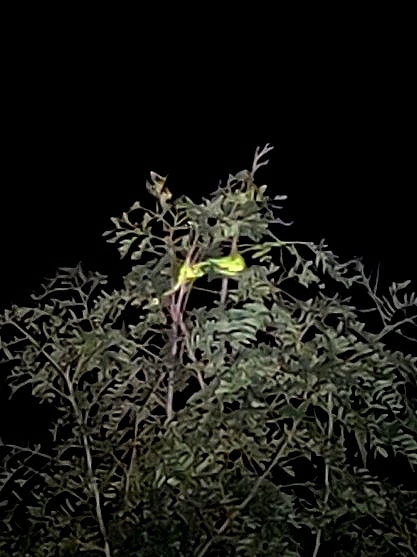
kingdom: Animalia
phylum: Chordata
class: Squamata
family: Chamaeleonidae
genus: Chamaeleo
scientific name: Chamaeleo zeylanicus
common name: Indian chameleon
